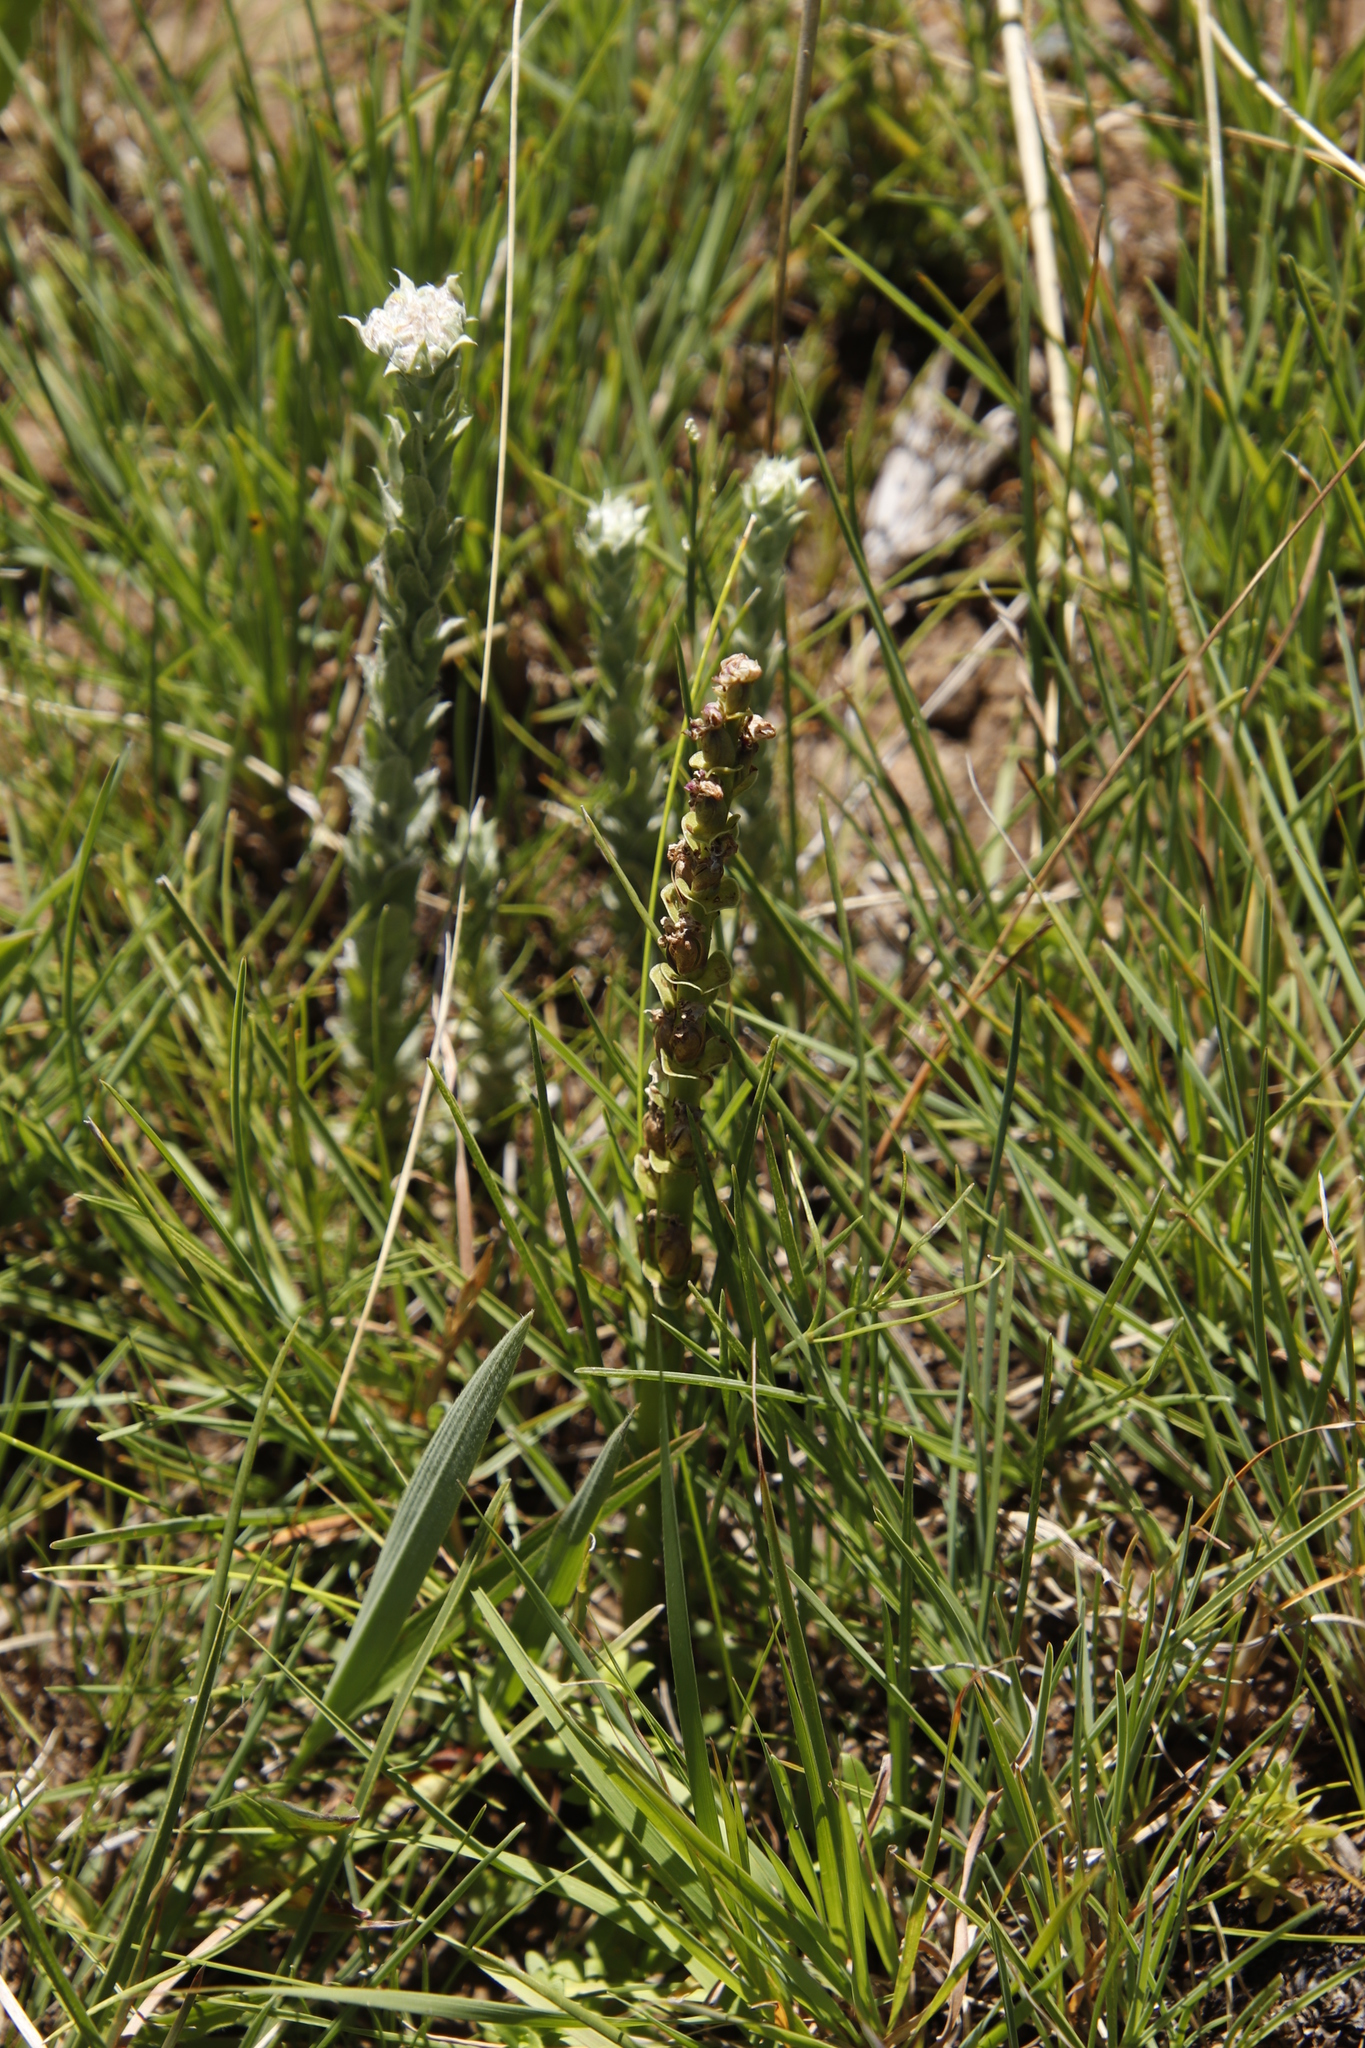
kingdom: Plantae
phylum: Tracheophyta
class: Liliopsida
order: Asparagales
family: Orchidaceae
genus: Habenaria
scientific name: Habenaria laevigata
